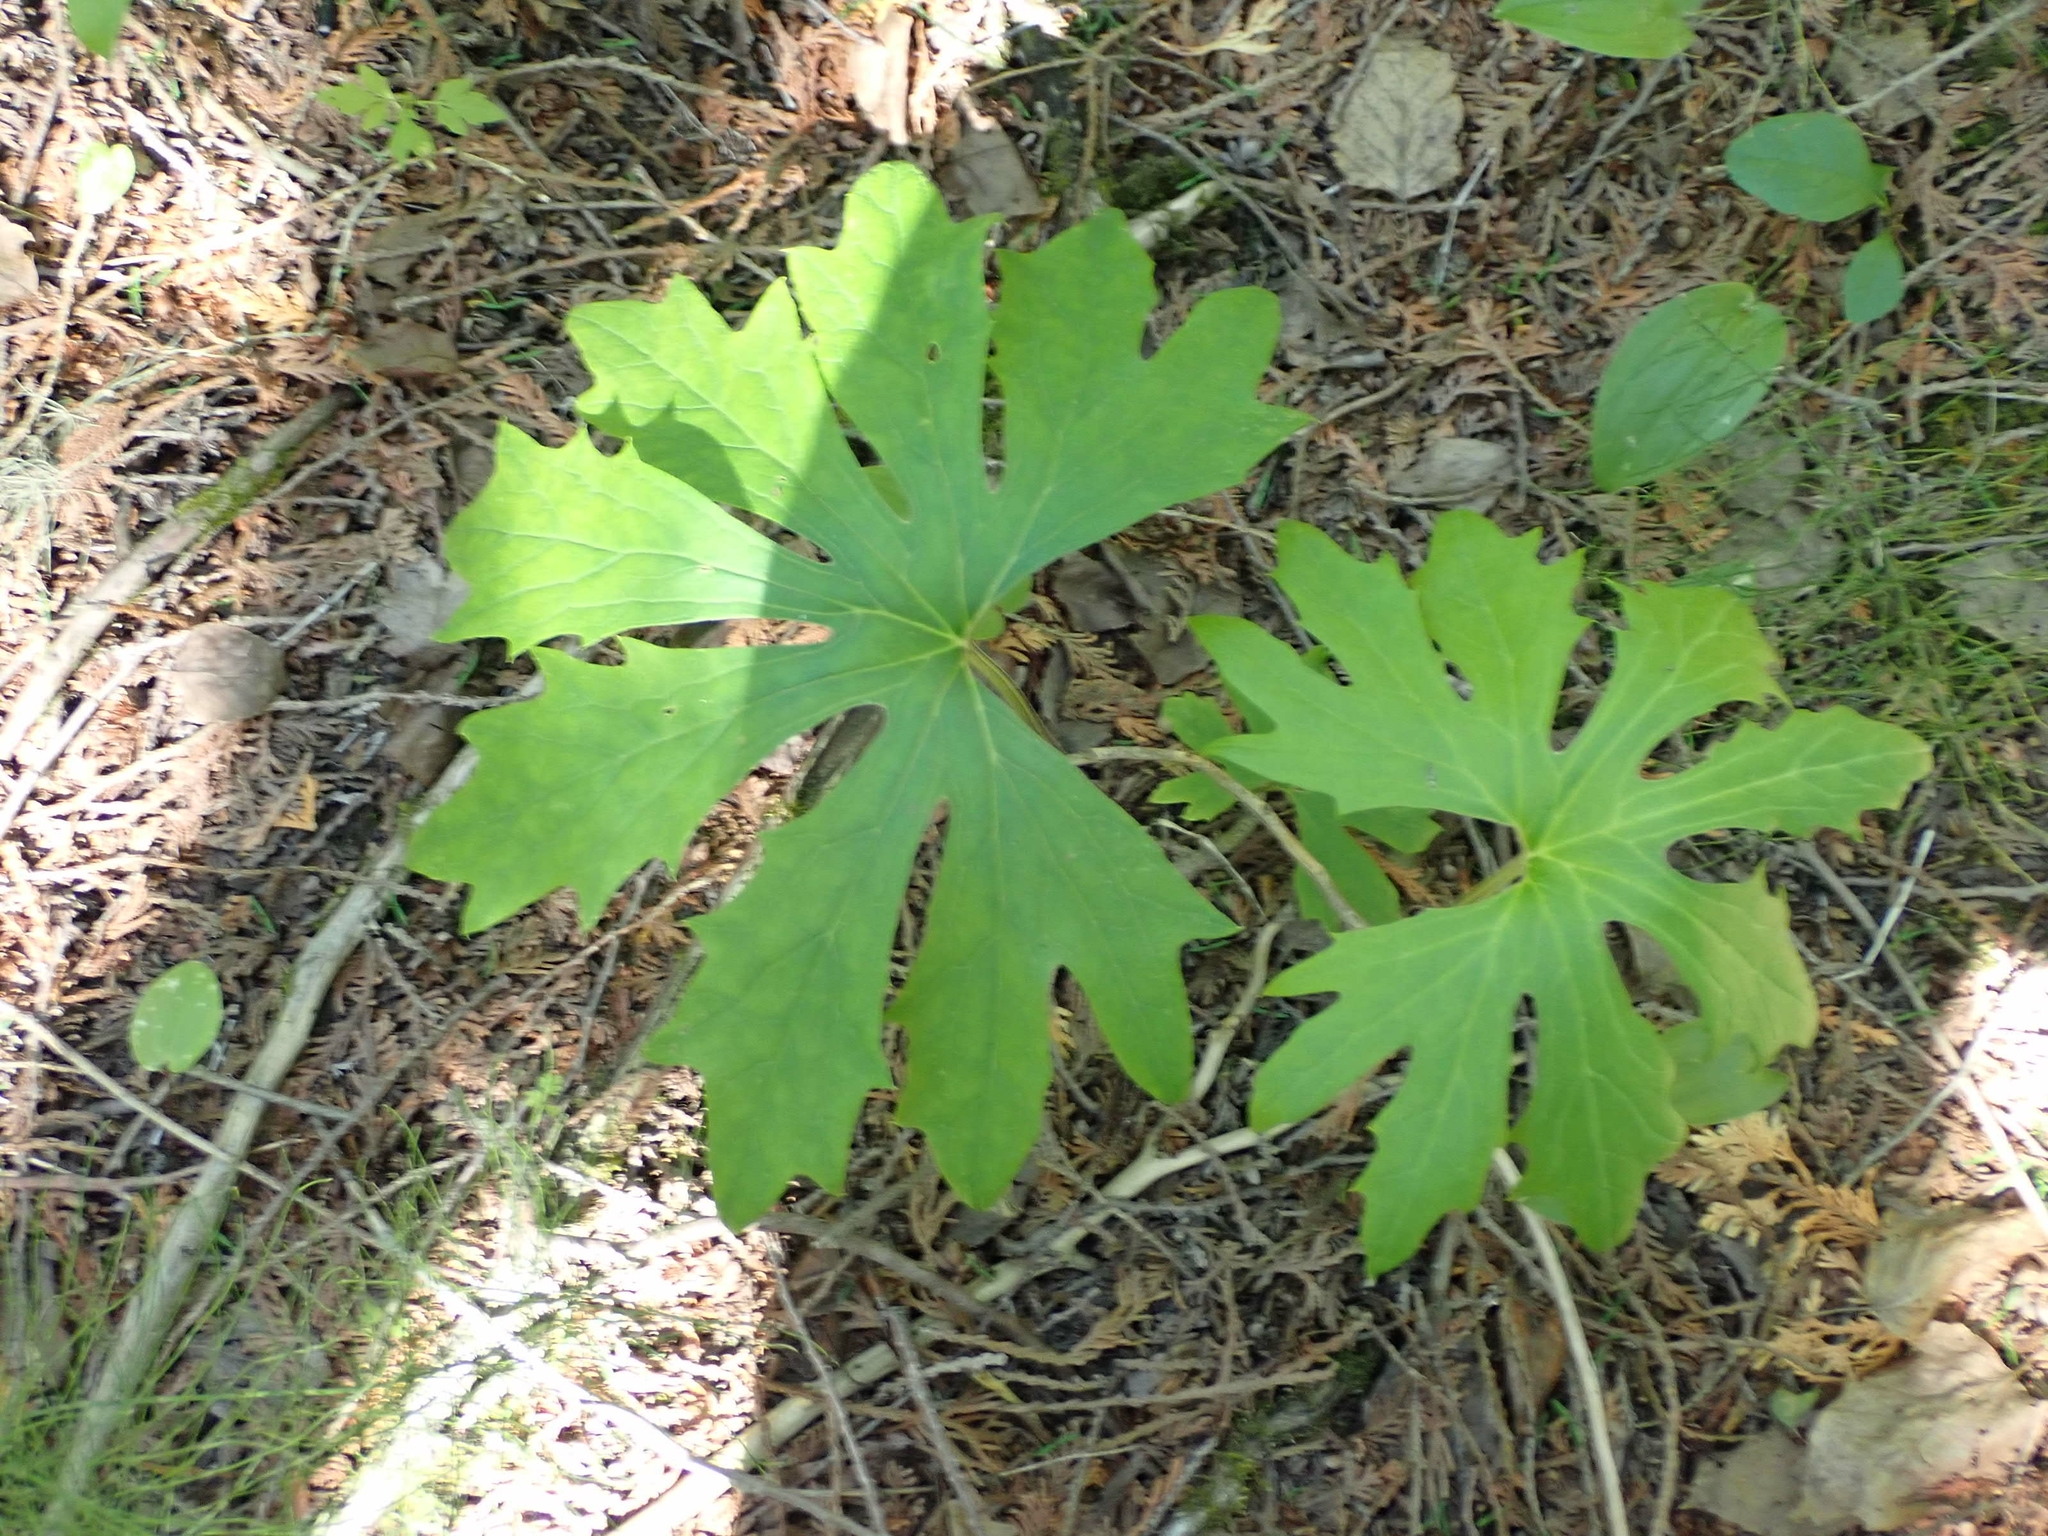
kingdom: Plantae
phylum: Tracheophyta
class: Magnoliopsida
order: Asterales
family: Asteraceae
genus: Petasites
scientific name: Petasites frigidus
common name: Arctic butterbur
